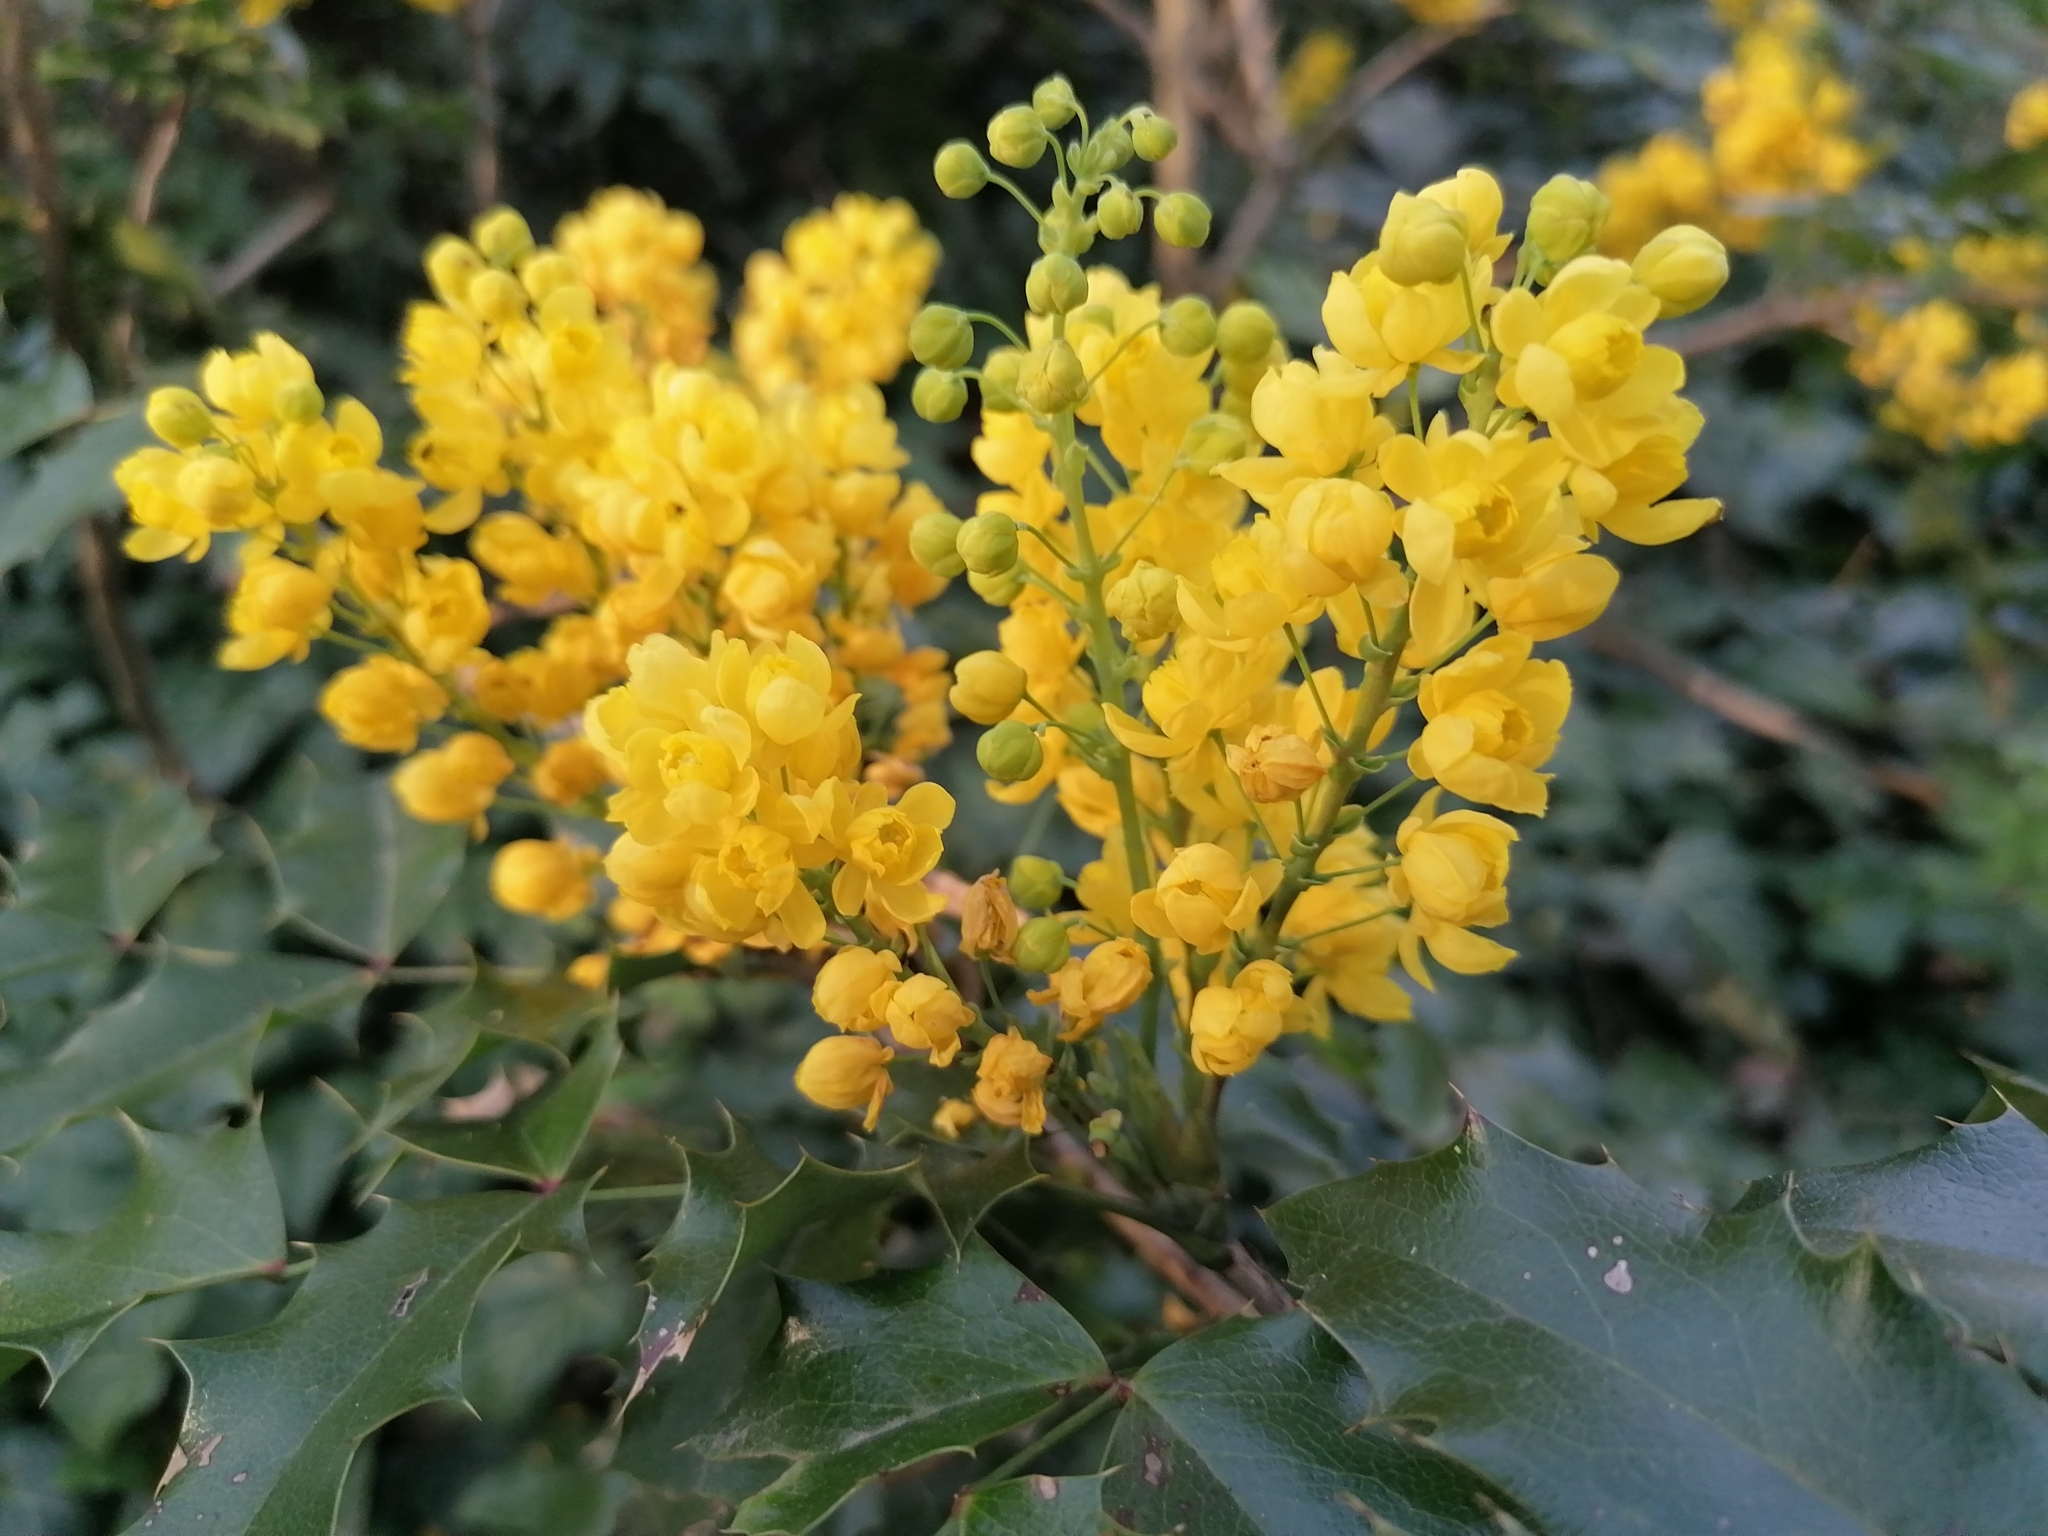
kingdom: Plantae
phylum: Tracheophyta
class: Magnoliopsida
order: Ranunculales
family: Berberidaceae
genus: Mahonia
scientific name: Mahonia aquifolium
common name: Oregon-grape
